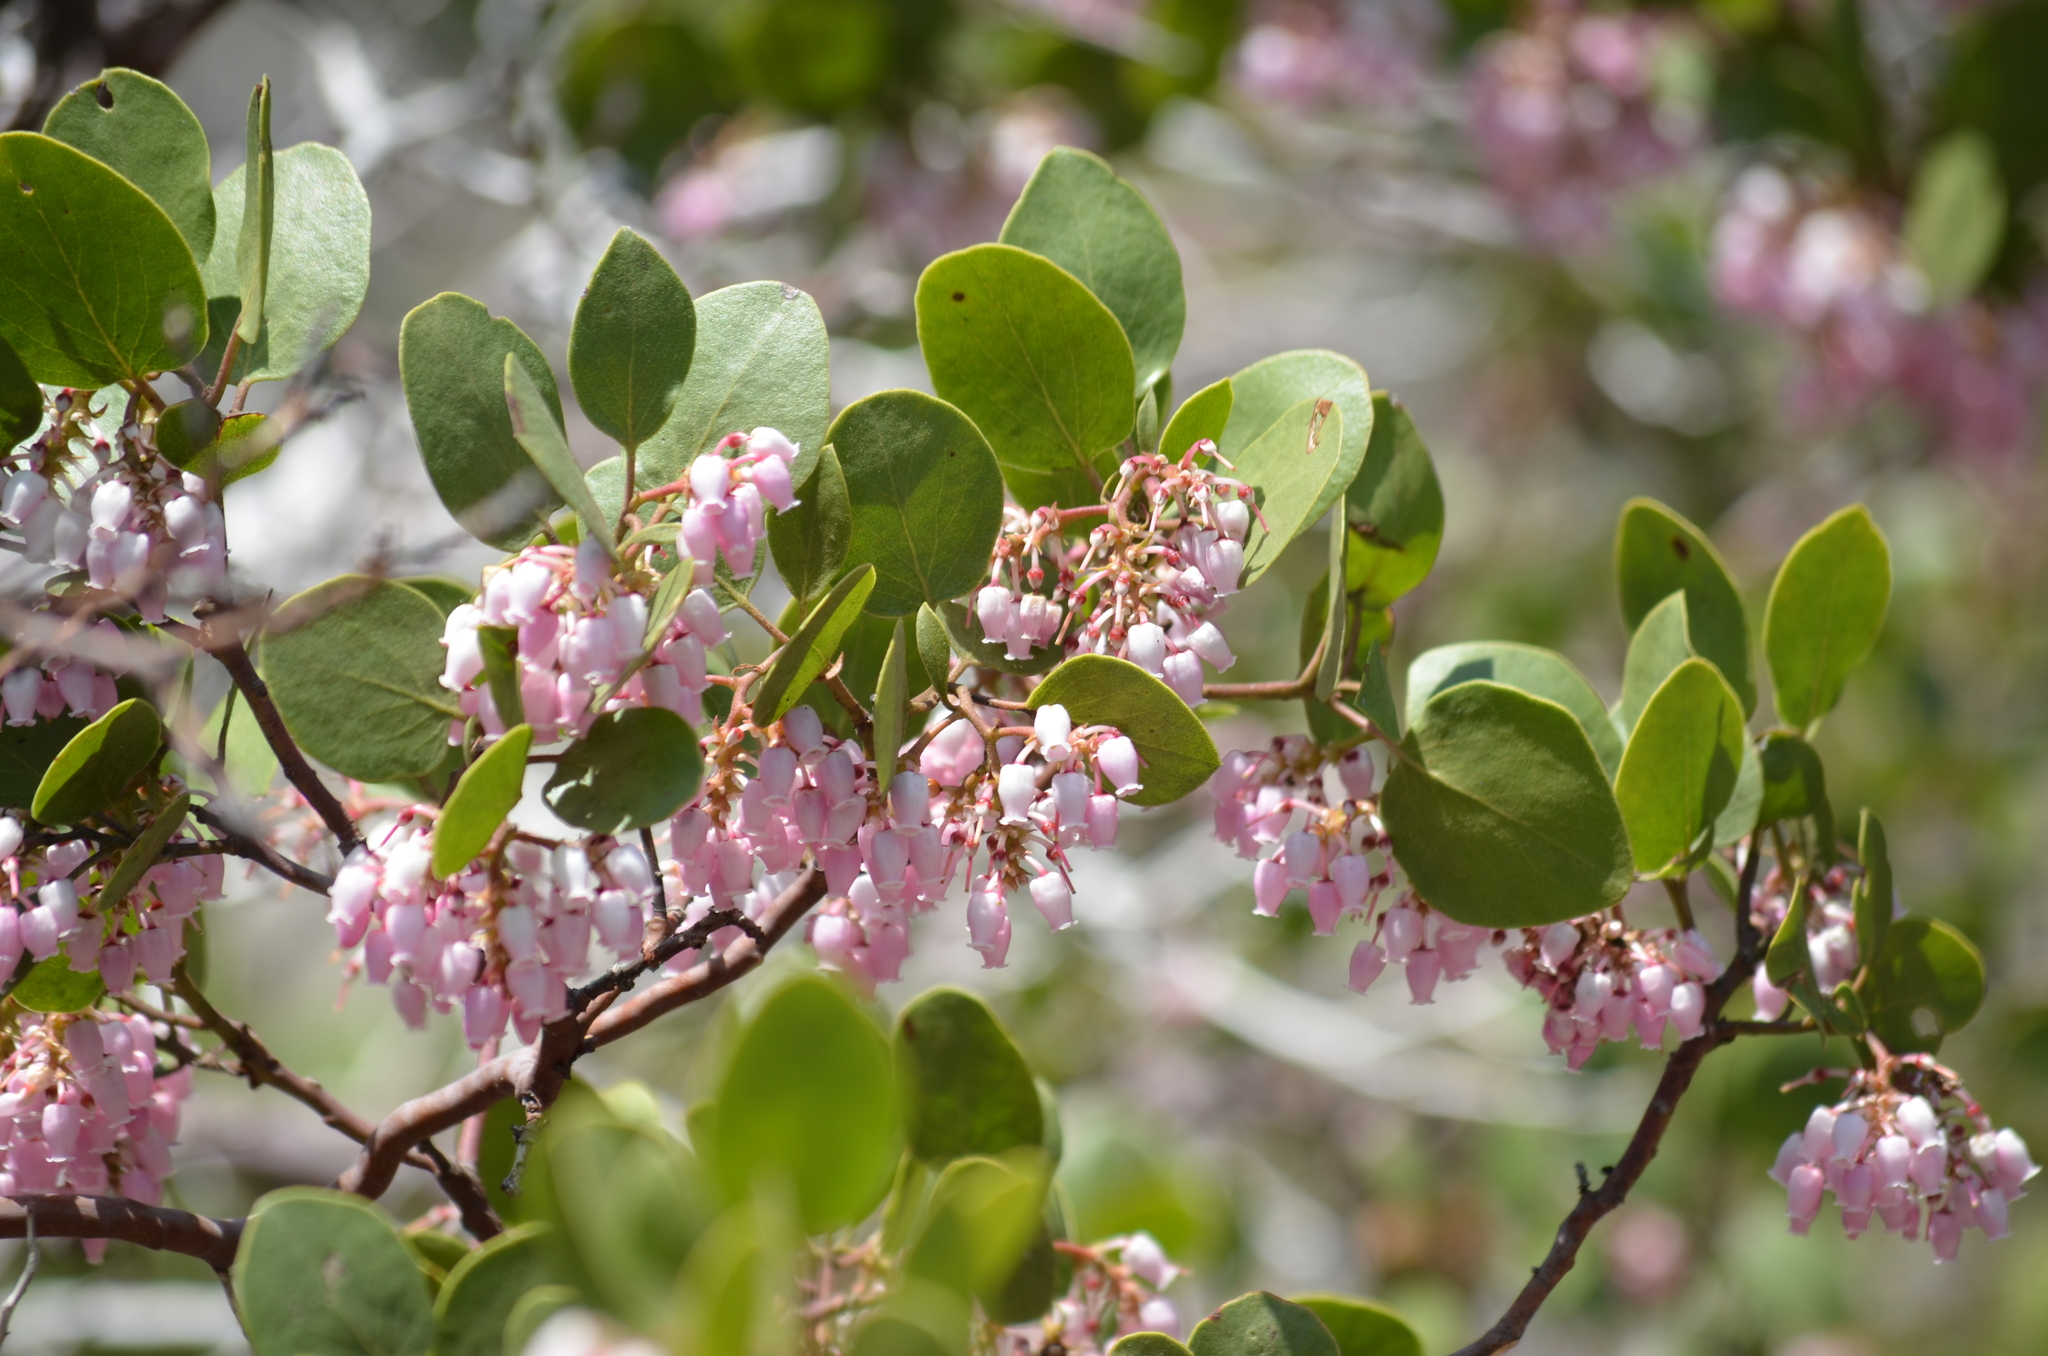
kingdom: Plantae
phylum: Tracheophyta
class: Magnoliopsida
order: Ericales
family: Ericaceae
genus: Arctostaphylos
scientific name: Arctostaphylos patula
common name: Green-leaf manzanita
